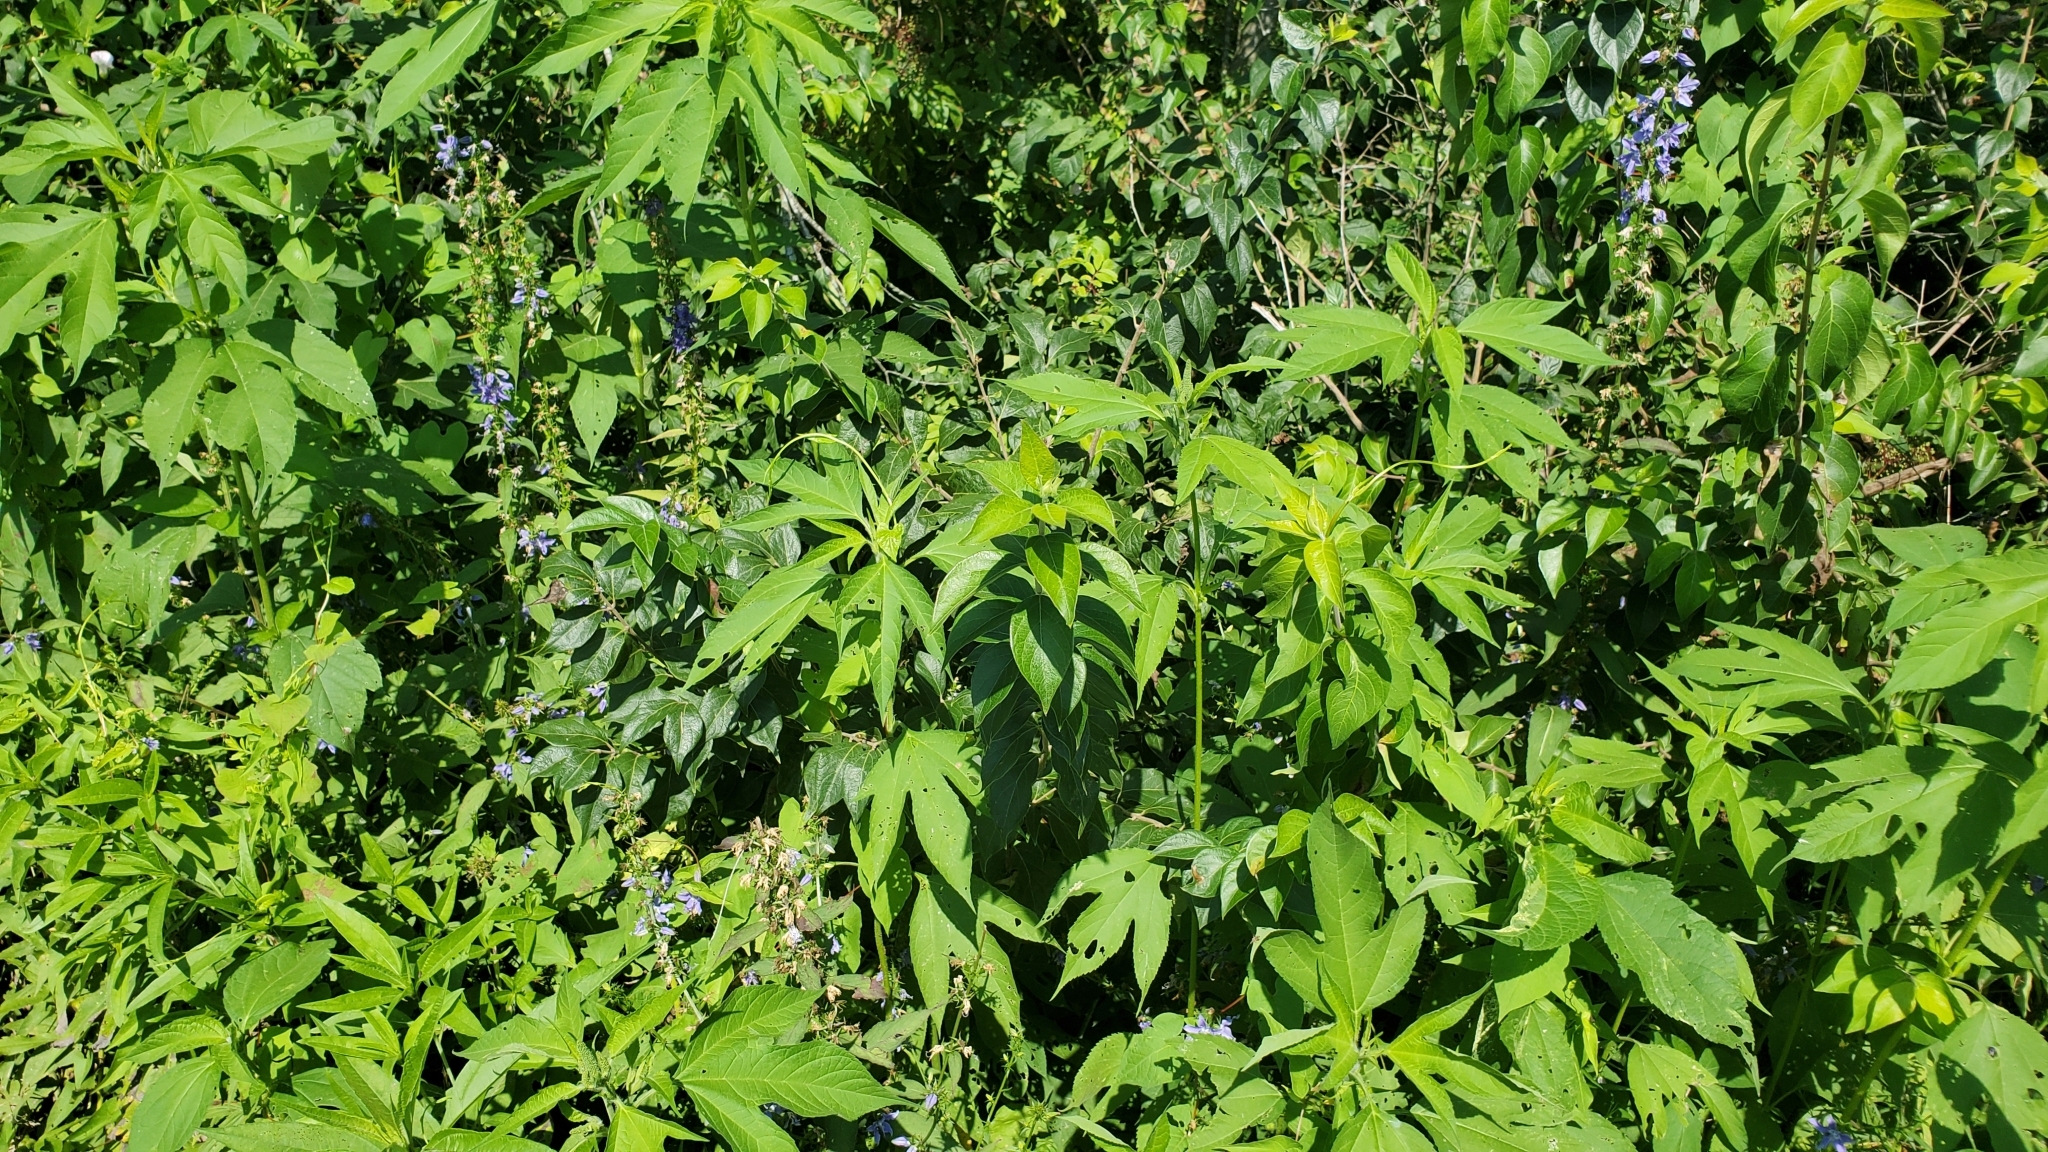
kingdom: Plantae
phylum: Tracheophyta
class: Magnoliopsida
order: Asterales
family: Campanulaceae
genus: Campanulastrum
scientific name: Campanulastrum americanum
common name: American bellflower
